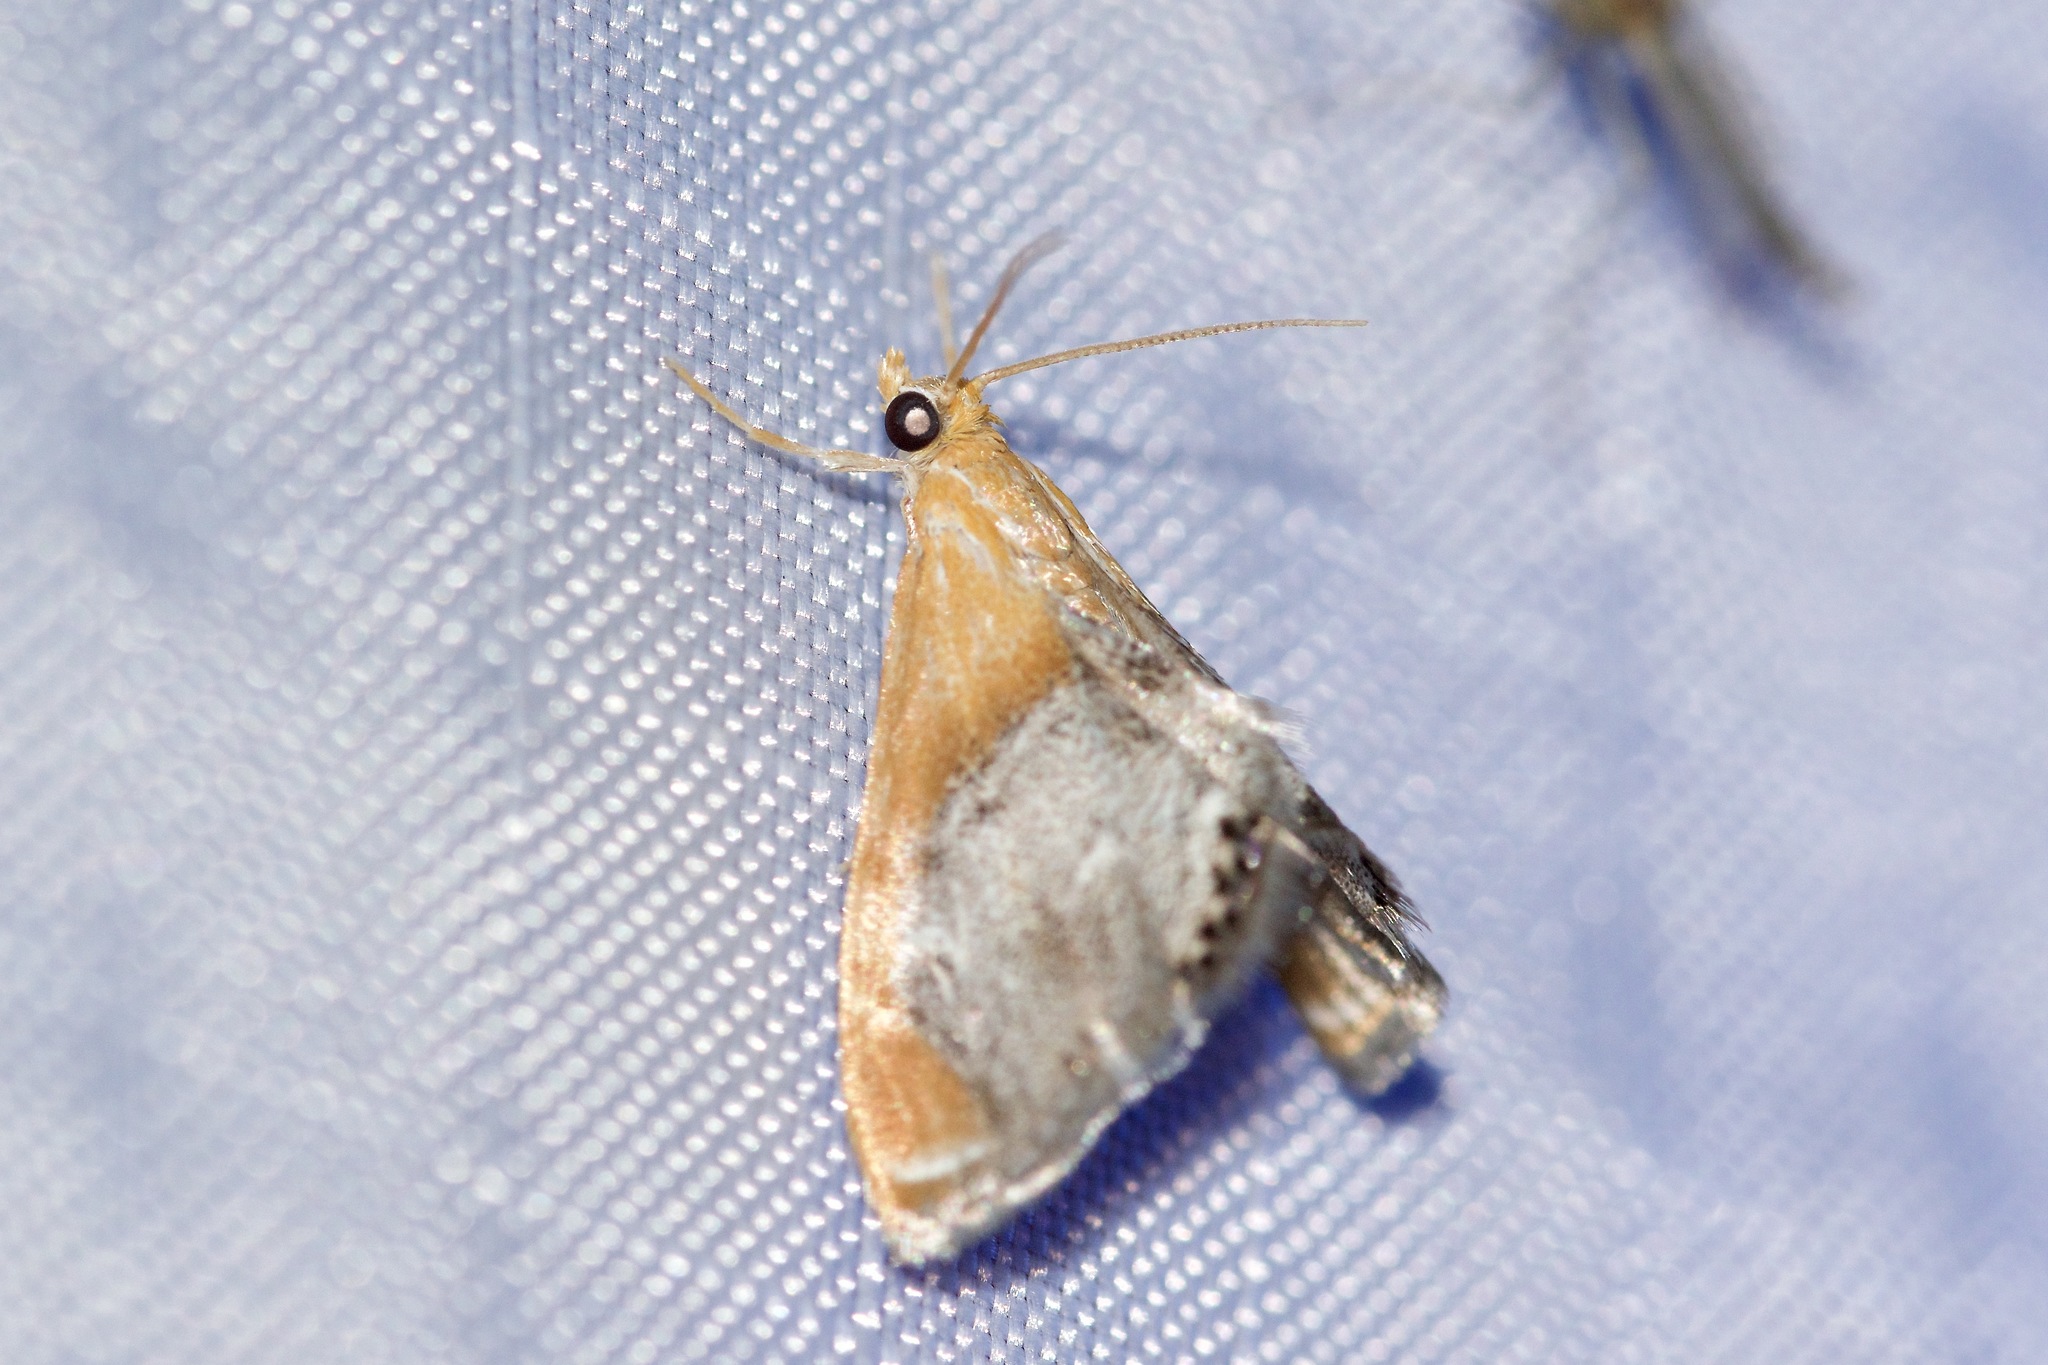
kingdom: Animalia
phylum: Arthropoda
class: Insecta
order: Lepidoptera
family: Crambidae
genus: Chalcoela
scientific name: Chalcoela iphitalis
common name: Sooty-winged chalcoela moth
